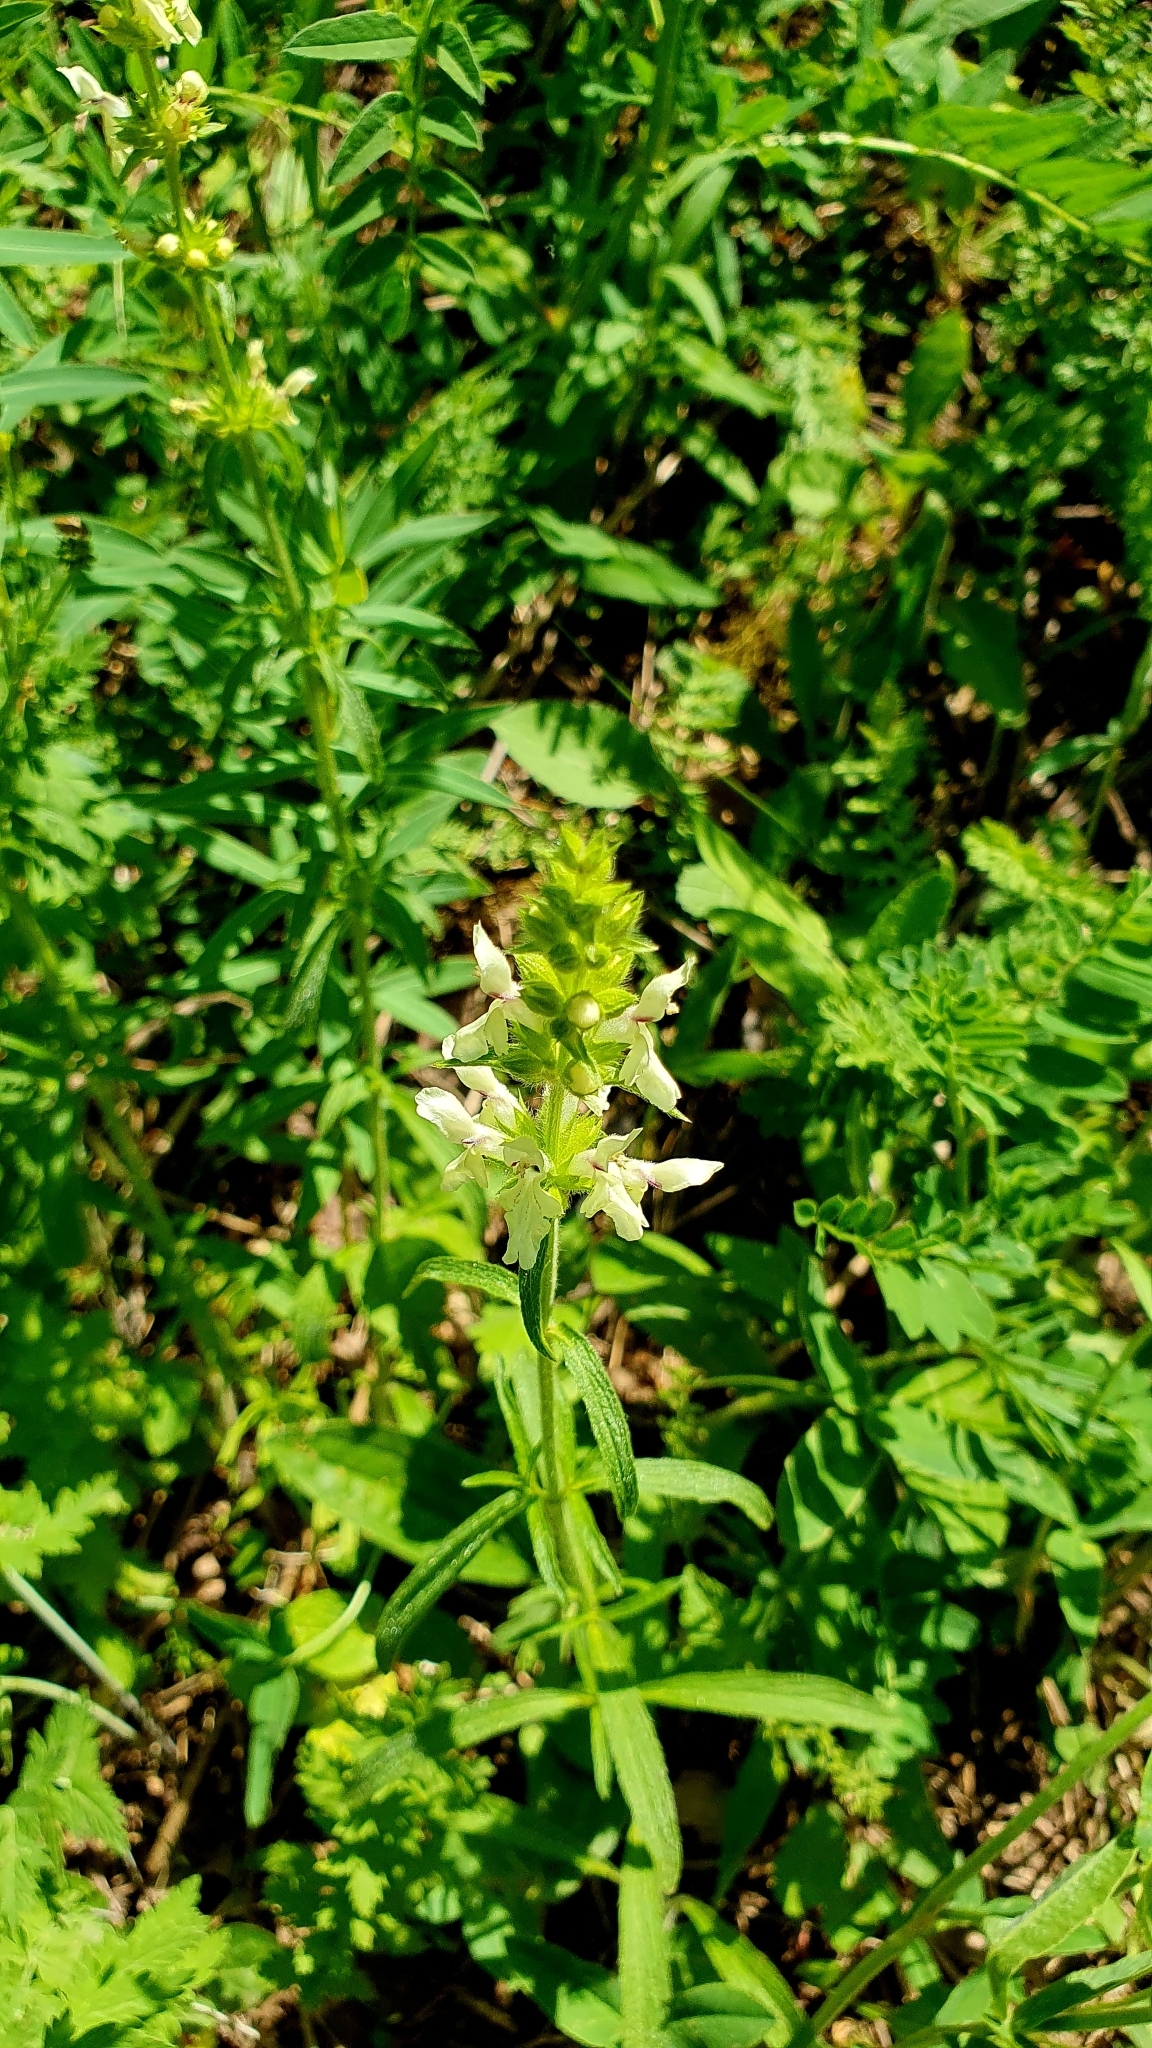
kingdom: Plantae
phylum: Tracheophyta
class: Magnoliopsida
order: Lamiales
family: Lamiaceae
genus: Stachys
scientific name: Stachys recta
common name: Perennial yellow-woundwort
